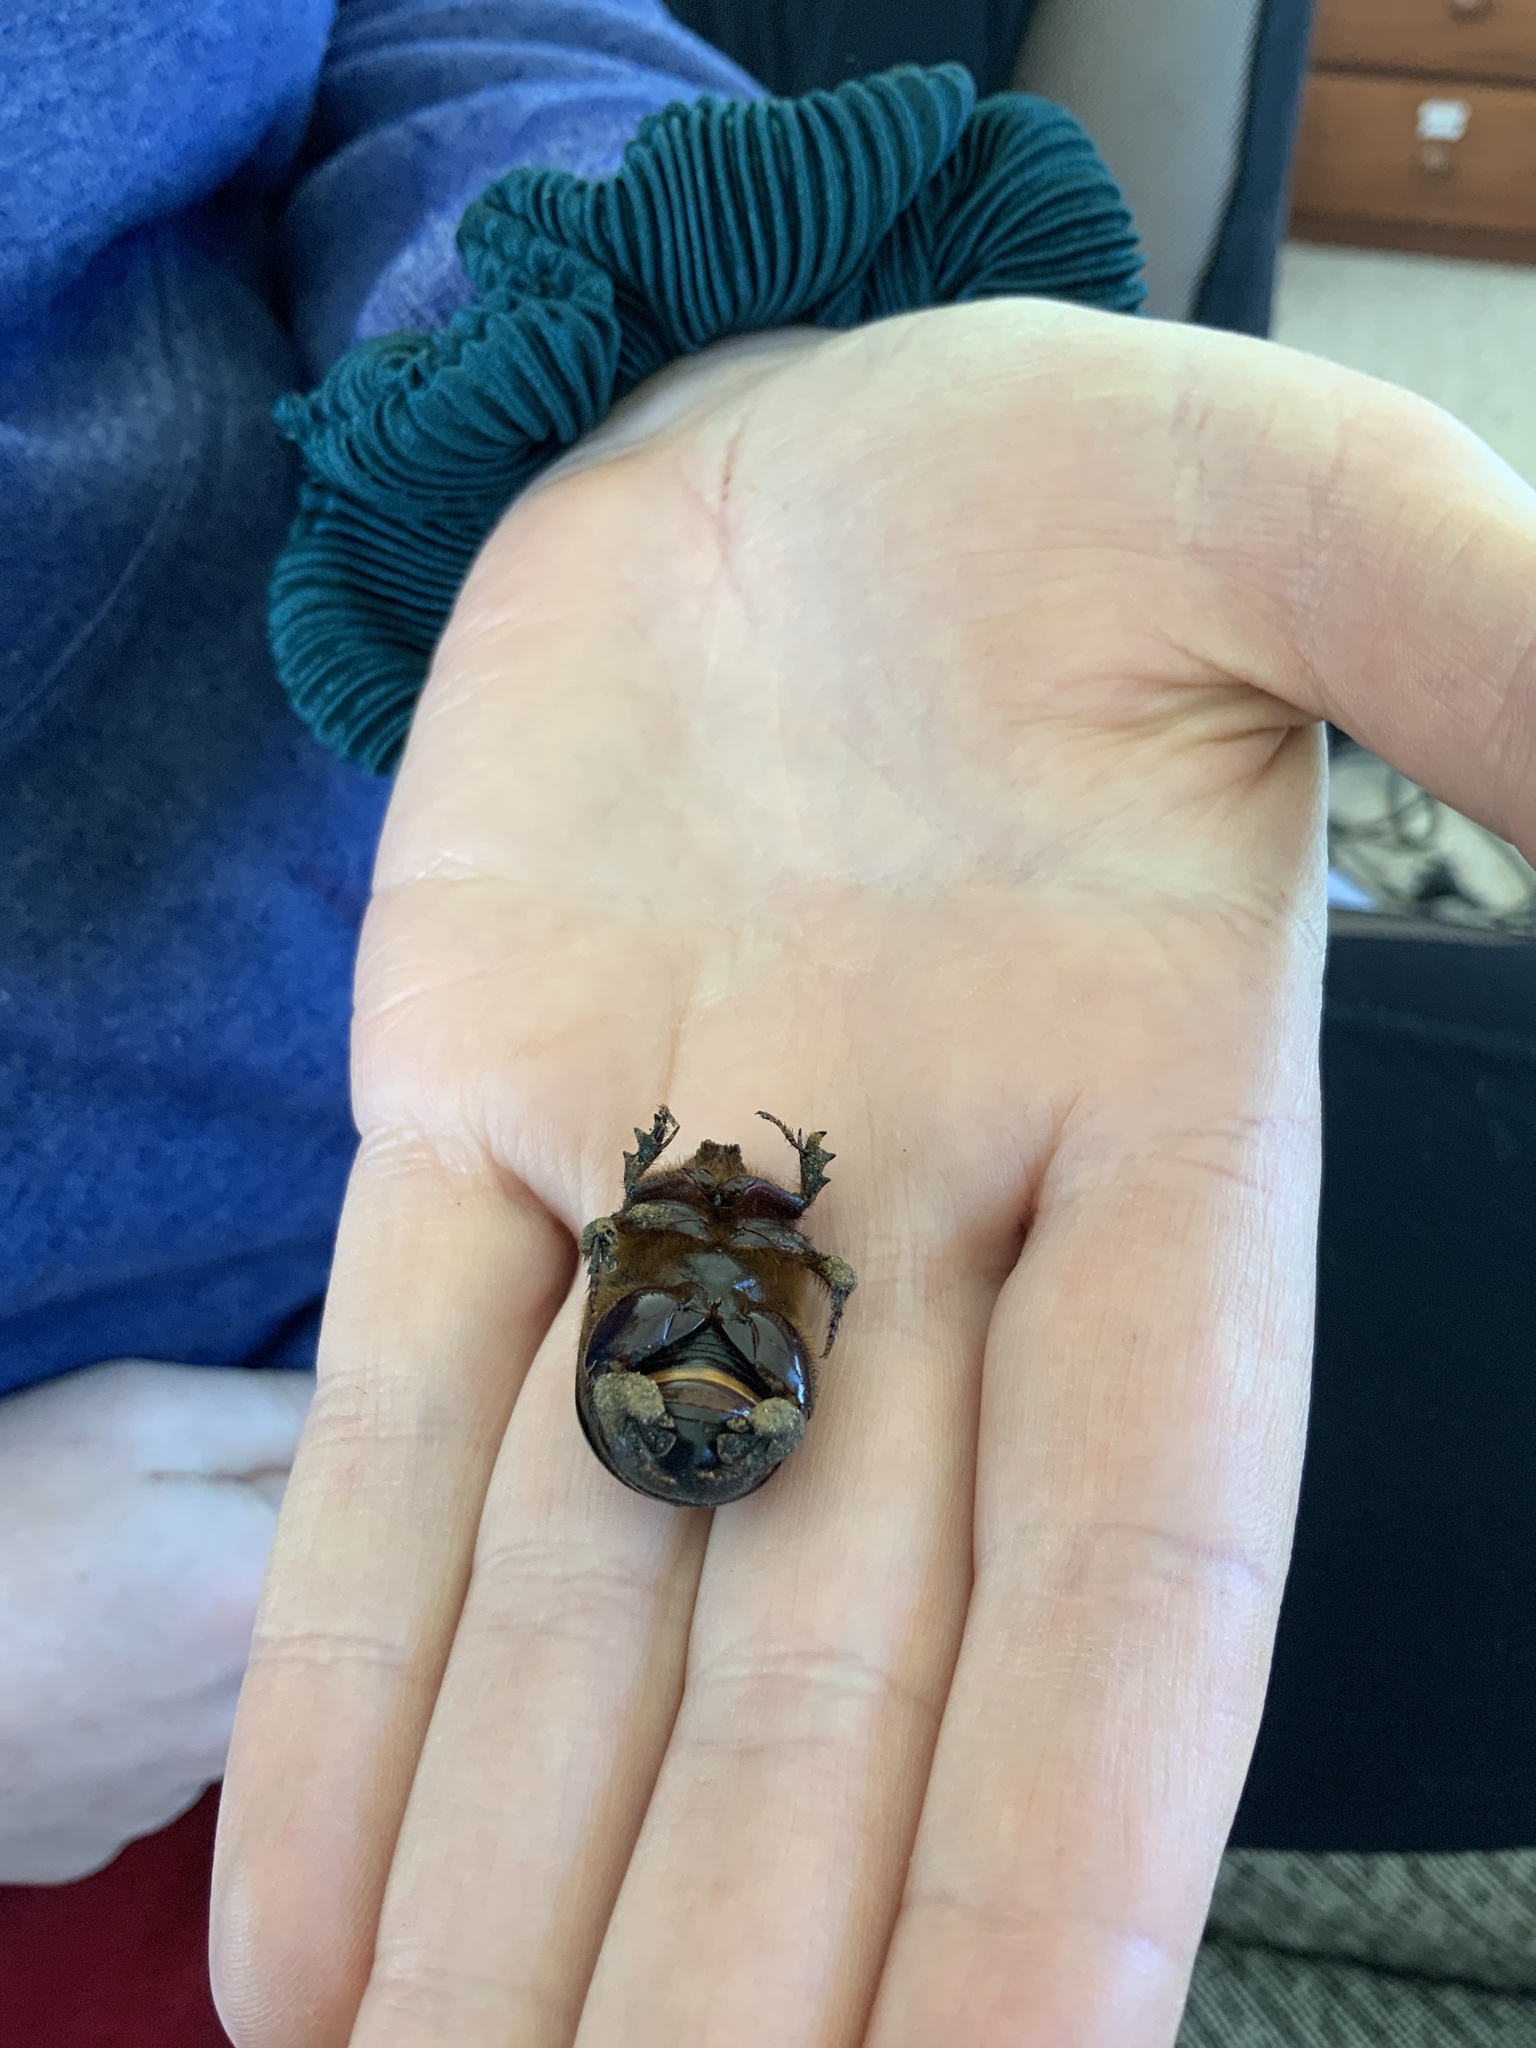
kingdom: Animalia
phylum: Arthropoda
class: Insecta
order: Coleoptera
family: Scarabaeidae
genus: Pericoptus
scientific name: Pericoptus truncatus
